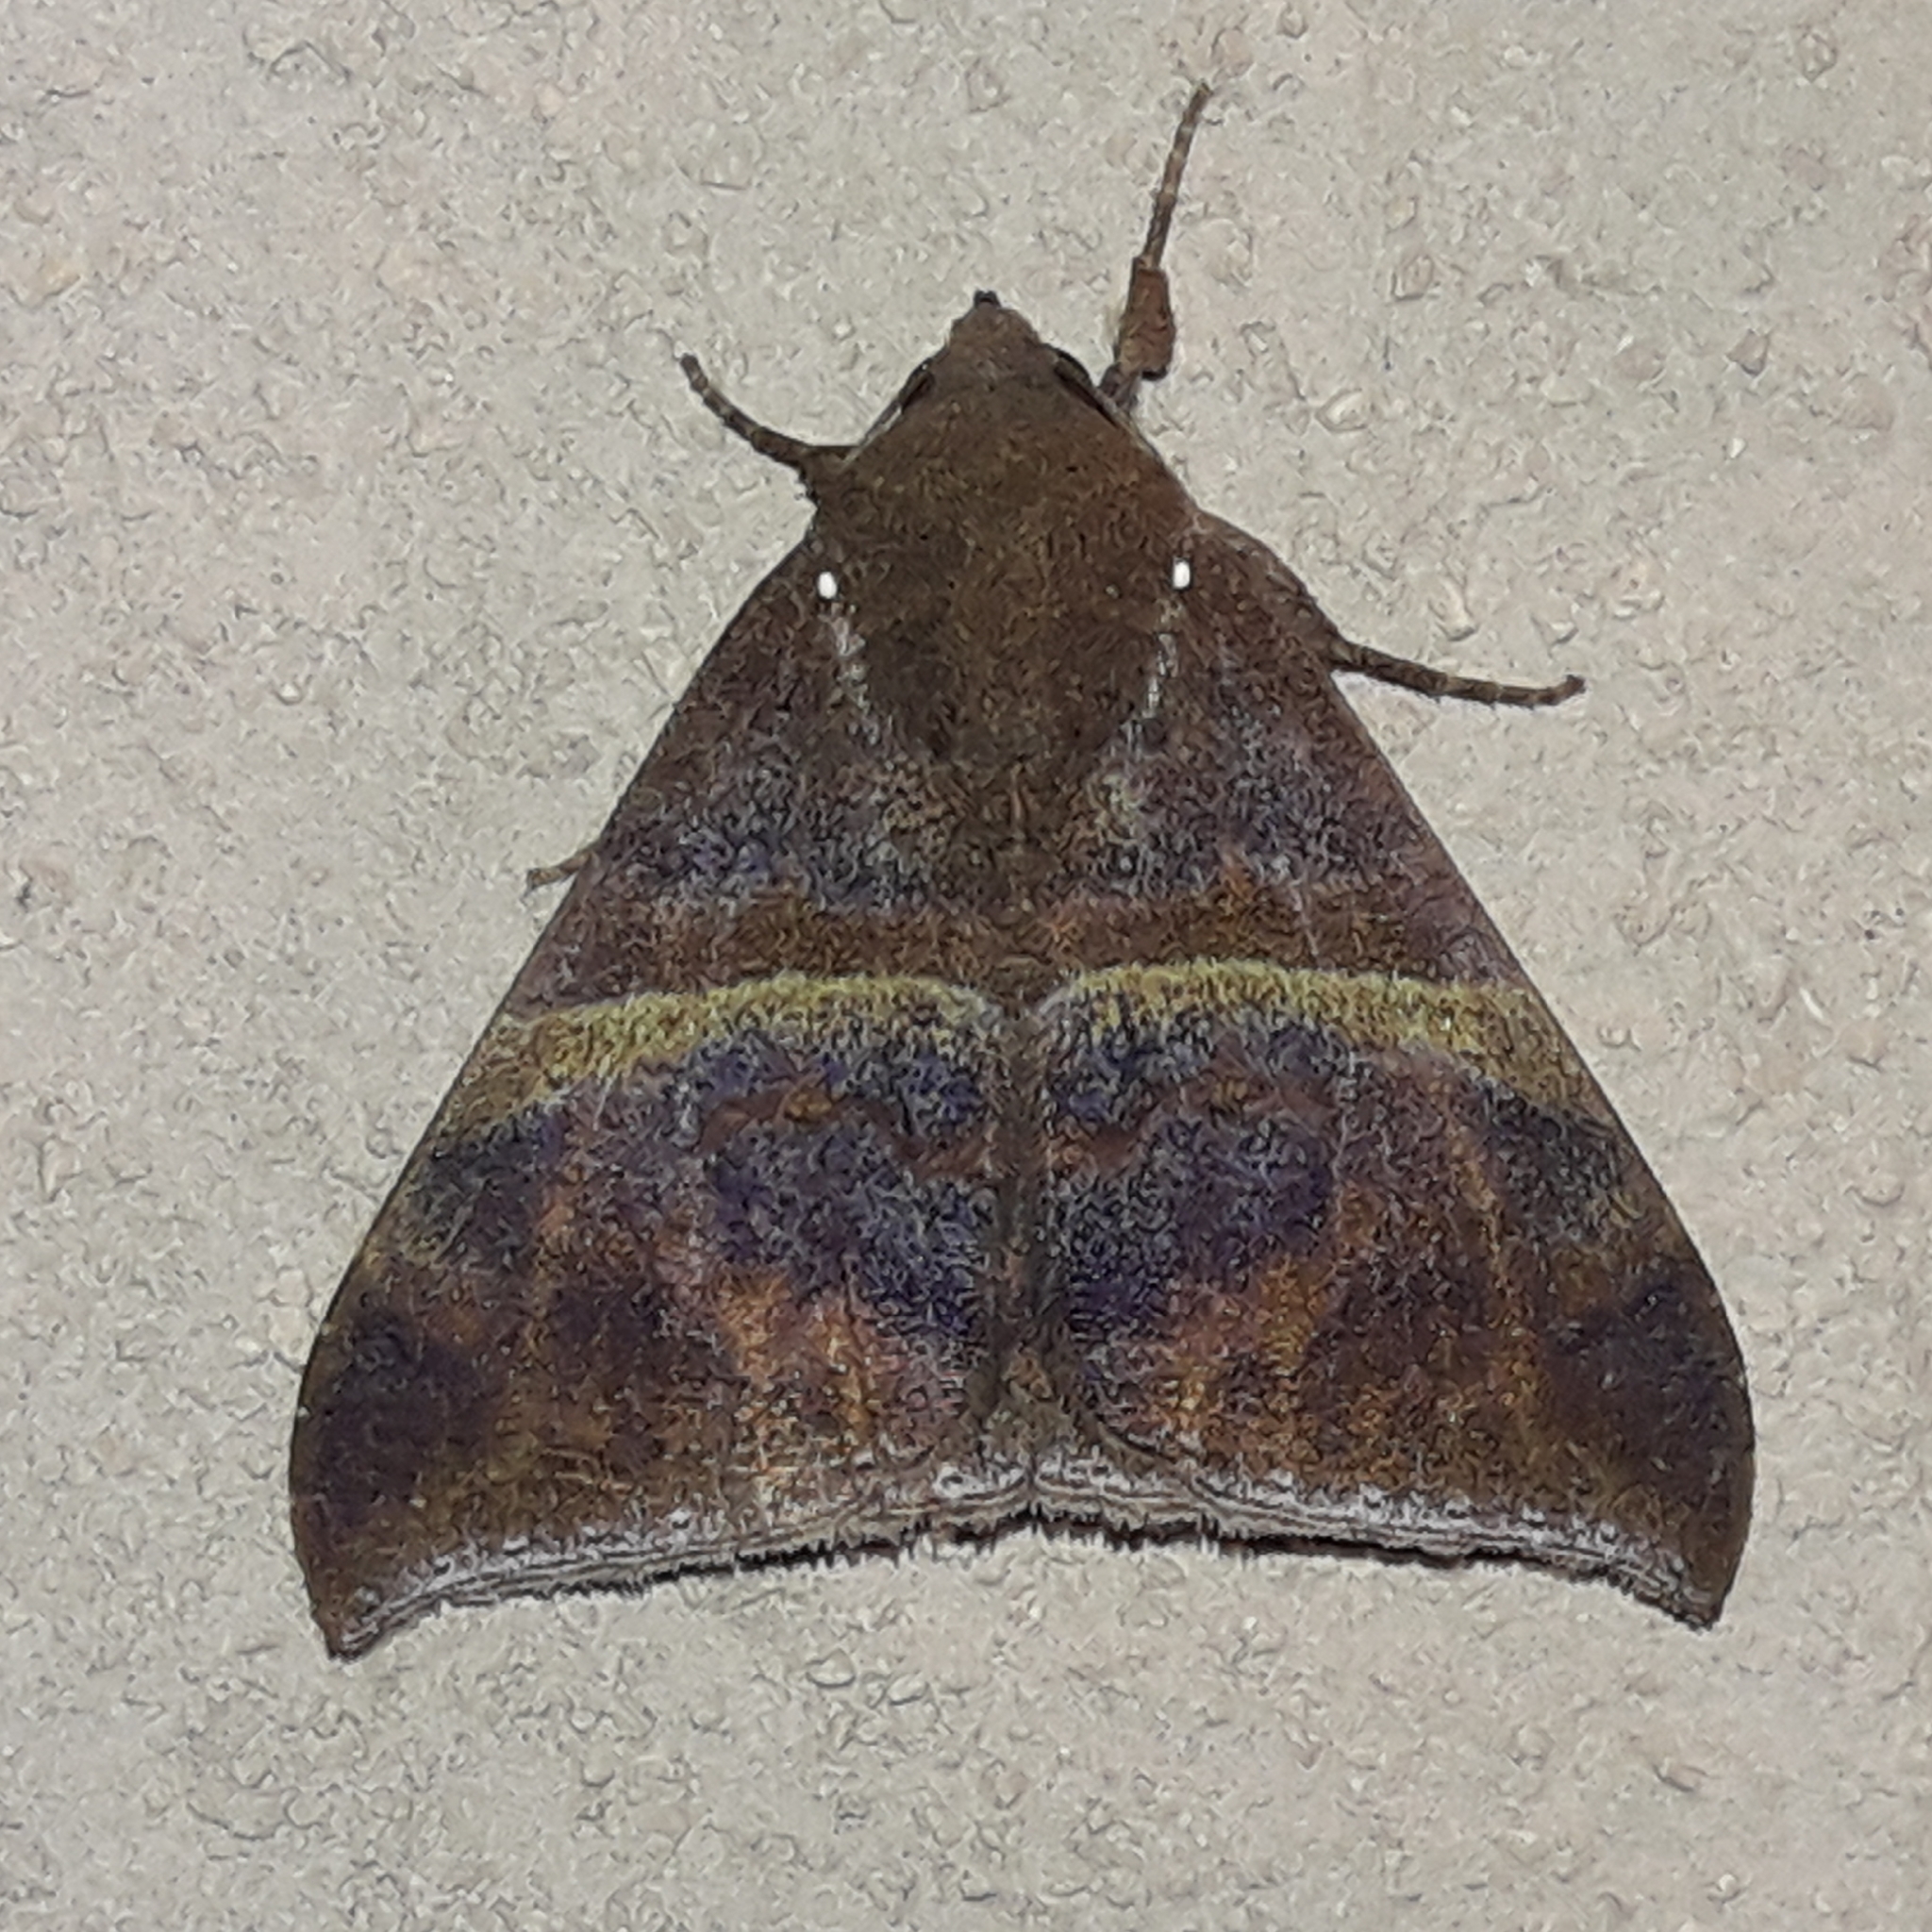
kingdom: Animalia
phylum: Arthropoda
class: Insecta
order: Lepidoptera
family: Erebidae
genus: Ophisma
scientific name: Ophisma tropicalis
